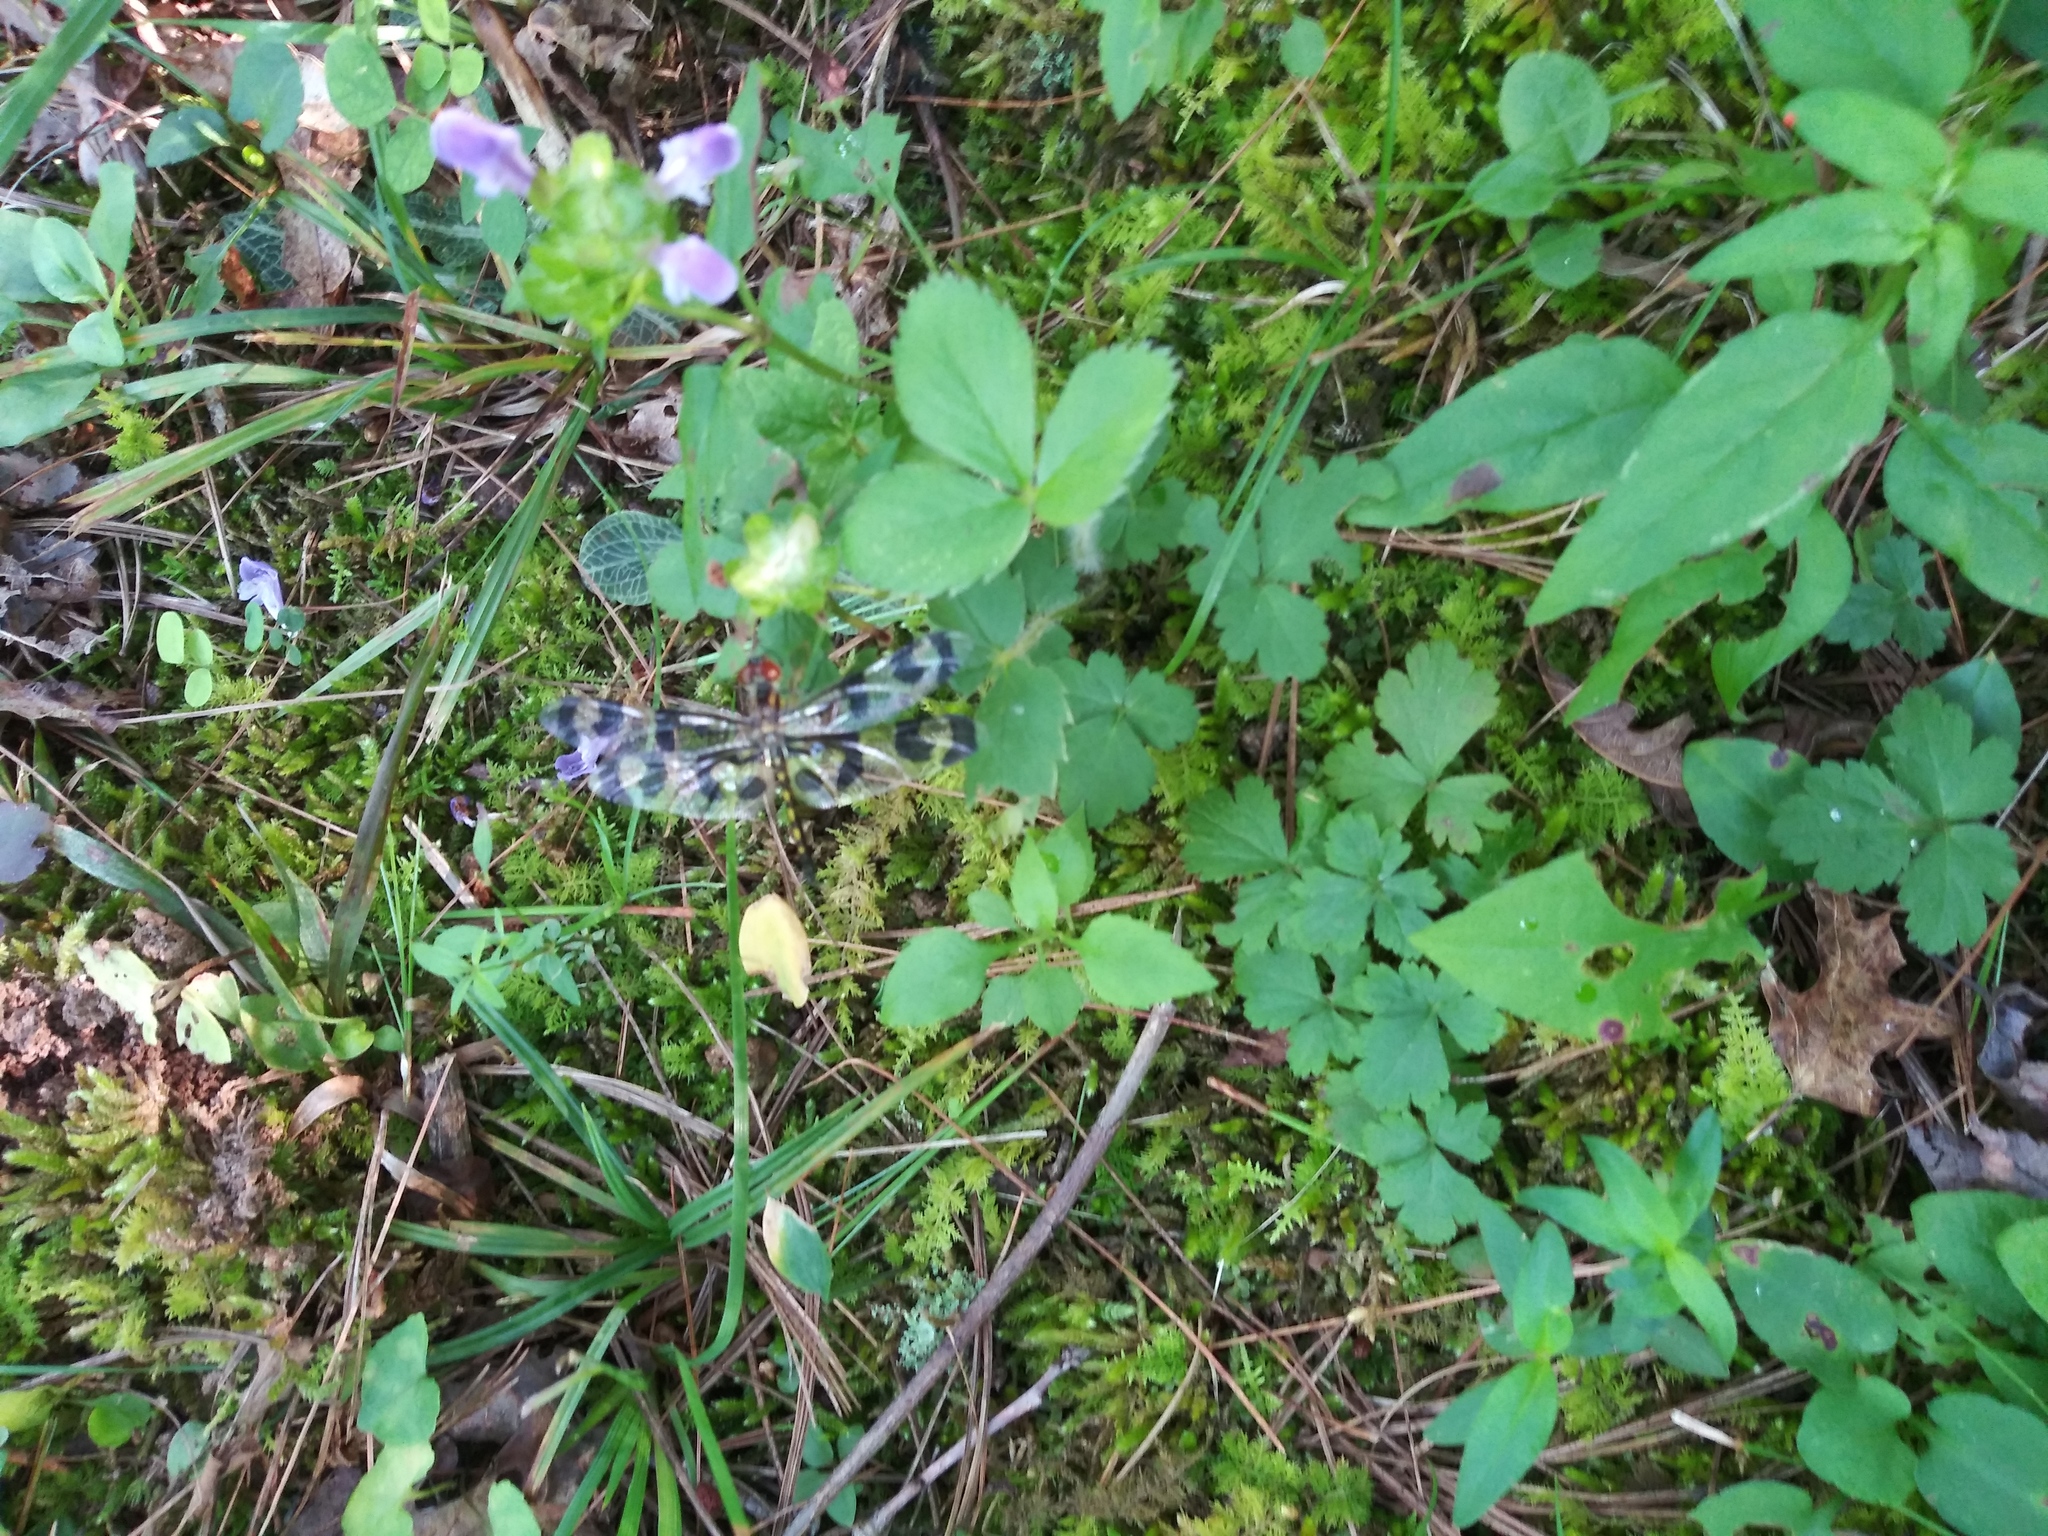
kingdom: Animalia
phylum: Arthropoda
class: Insecta
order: Odonata
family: Libellulidae
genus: Celithemis
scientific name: Celithemis fasciata
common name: Banded pennant
